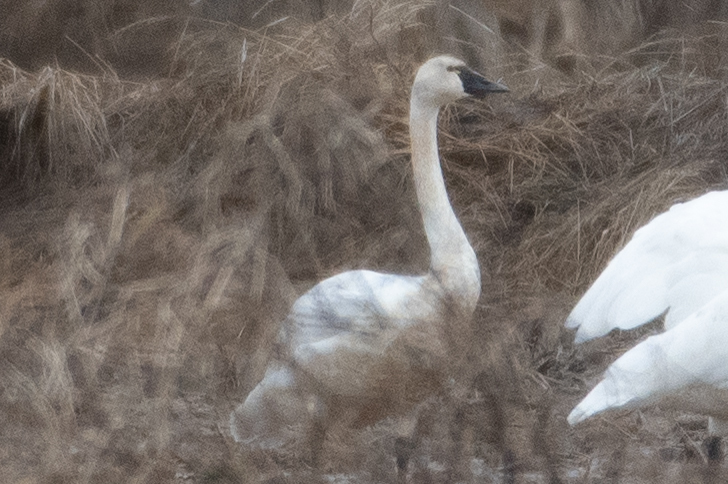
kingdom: Animalia
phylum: Chordata
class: Aves
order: Anseriformes
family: Anatidae
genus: Cygnus
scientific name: Cygnus columbianus
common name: Tundra swan
